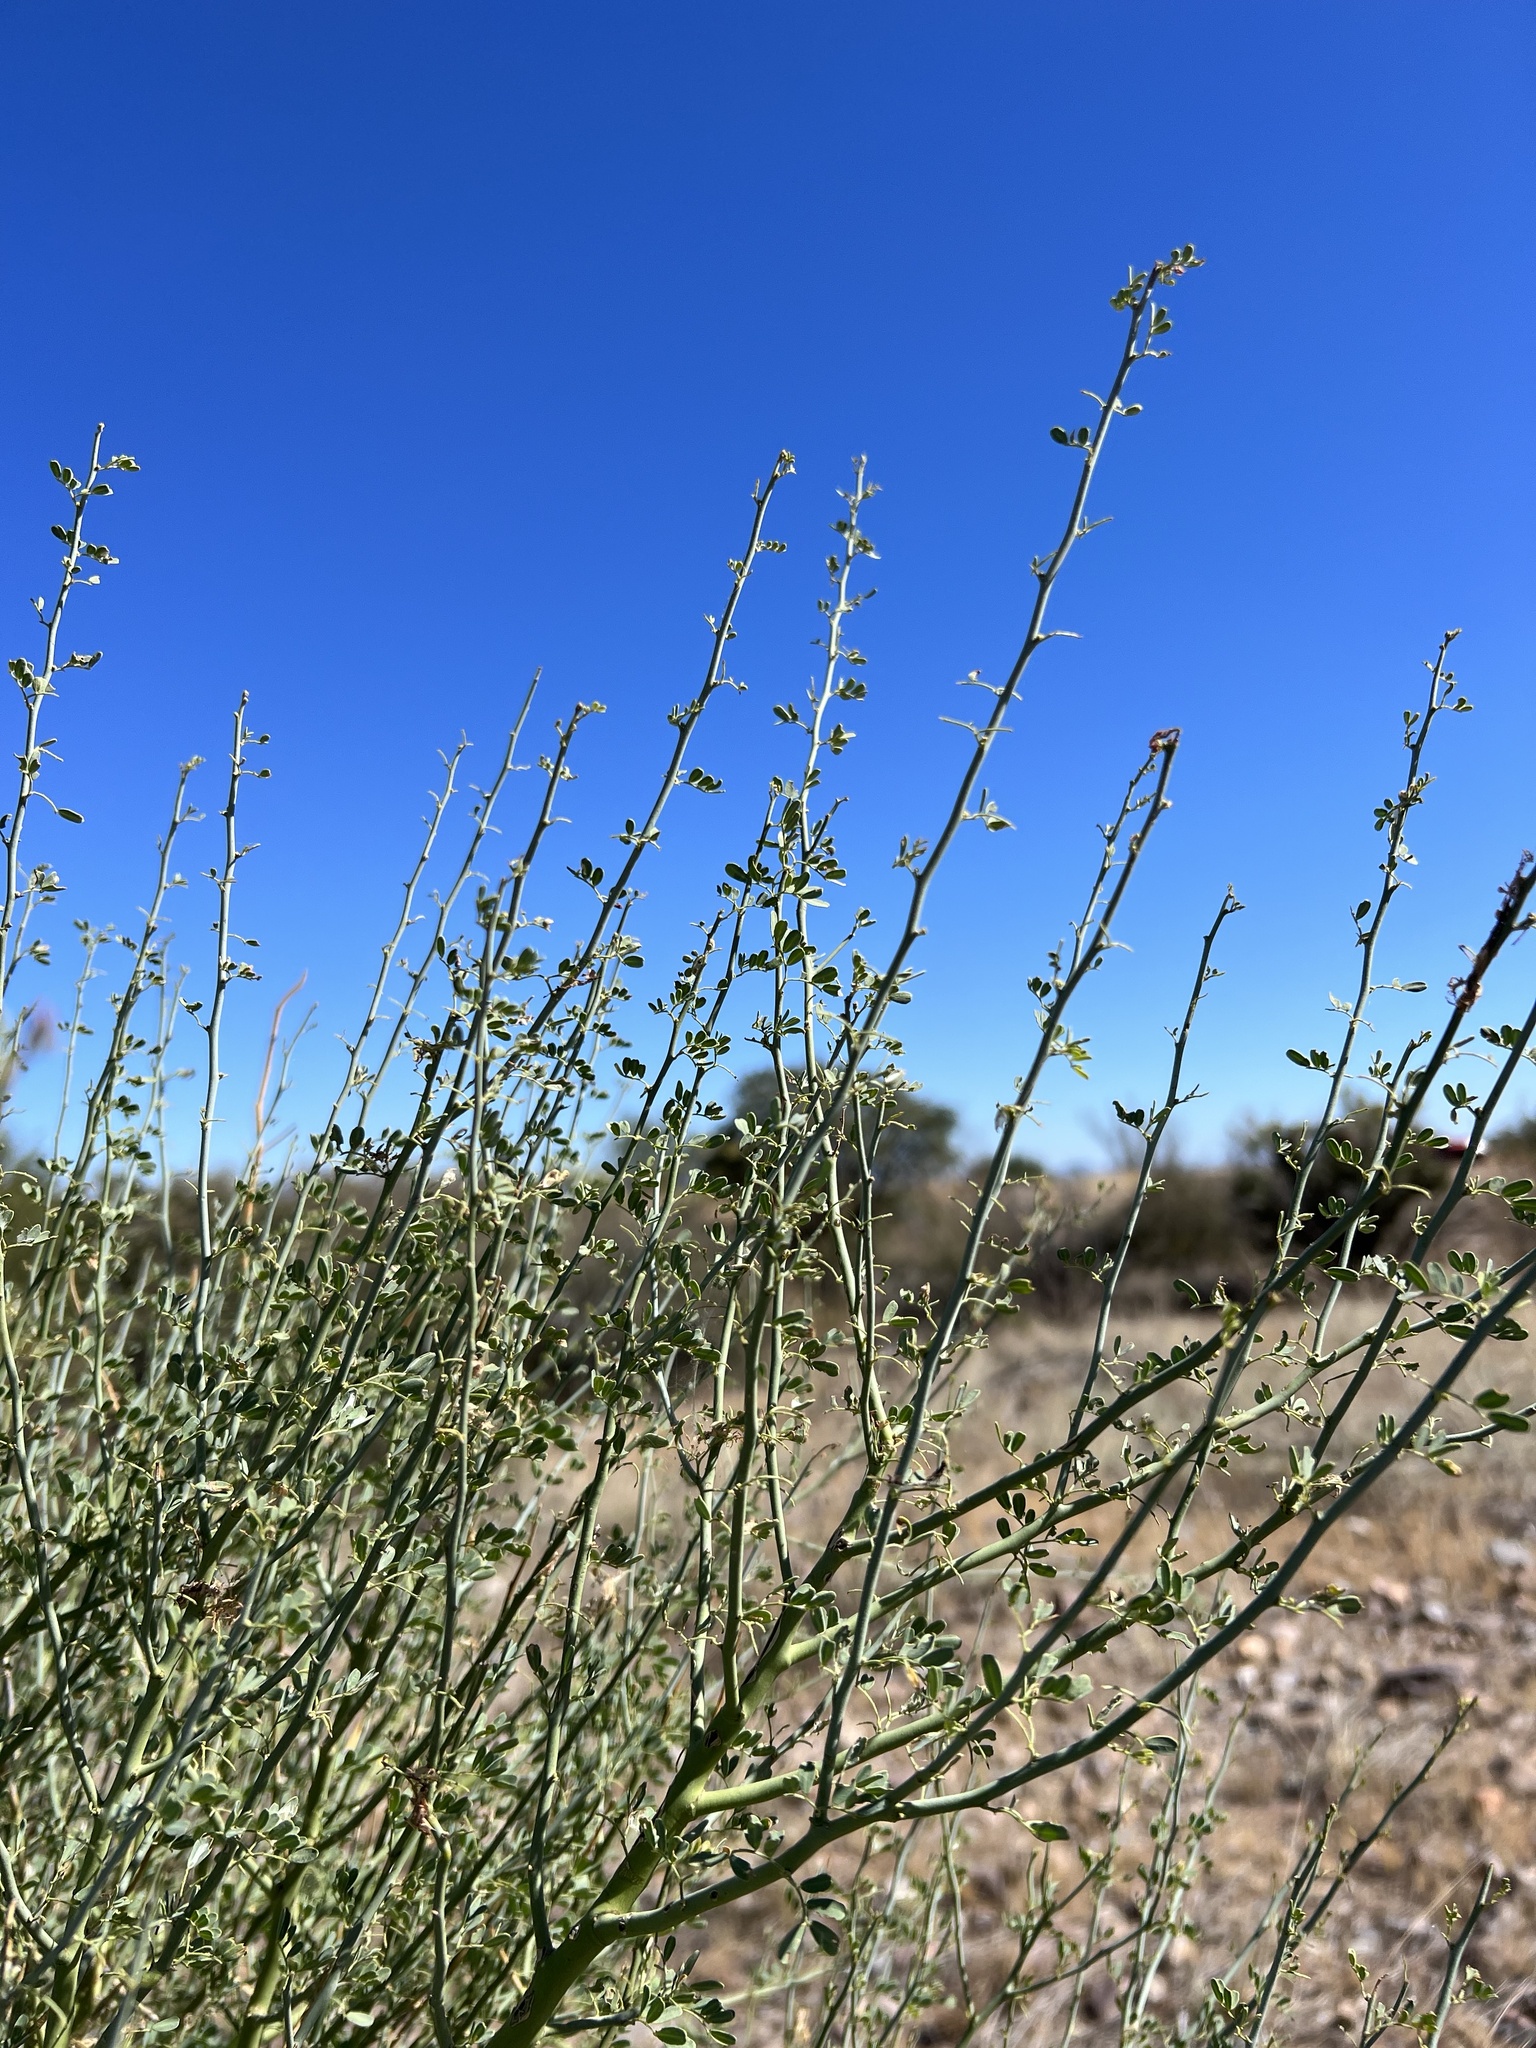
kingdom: Plantae
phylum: Tracheophyta
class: Magnoliopsida
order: Fabales
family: Fabaceae
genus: Parkinsonia
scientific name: Parkinsonia florida
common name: Blue paloverde
